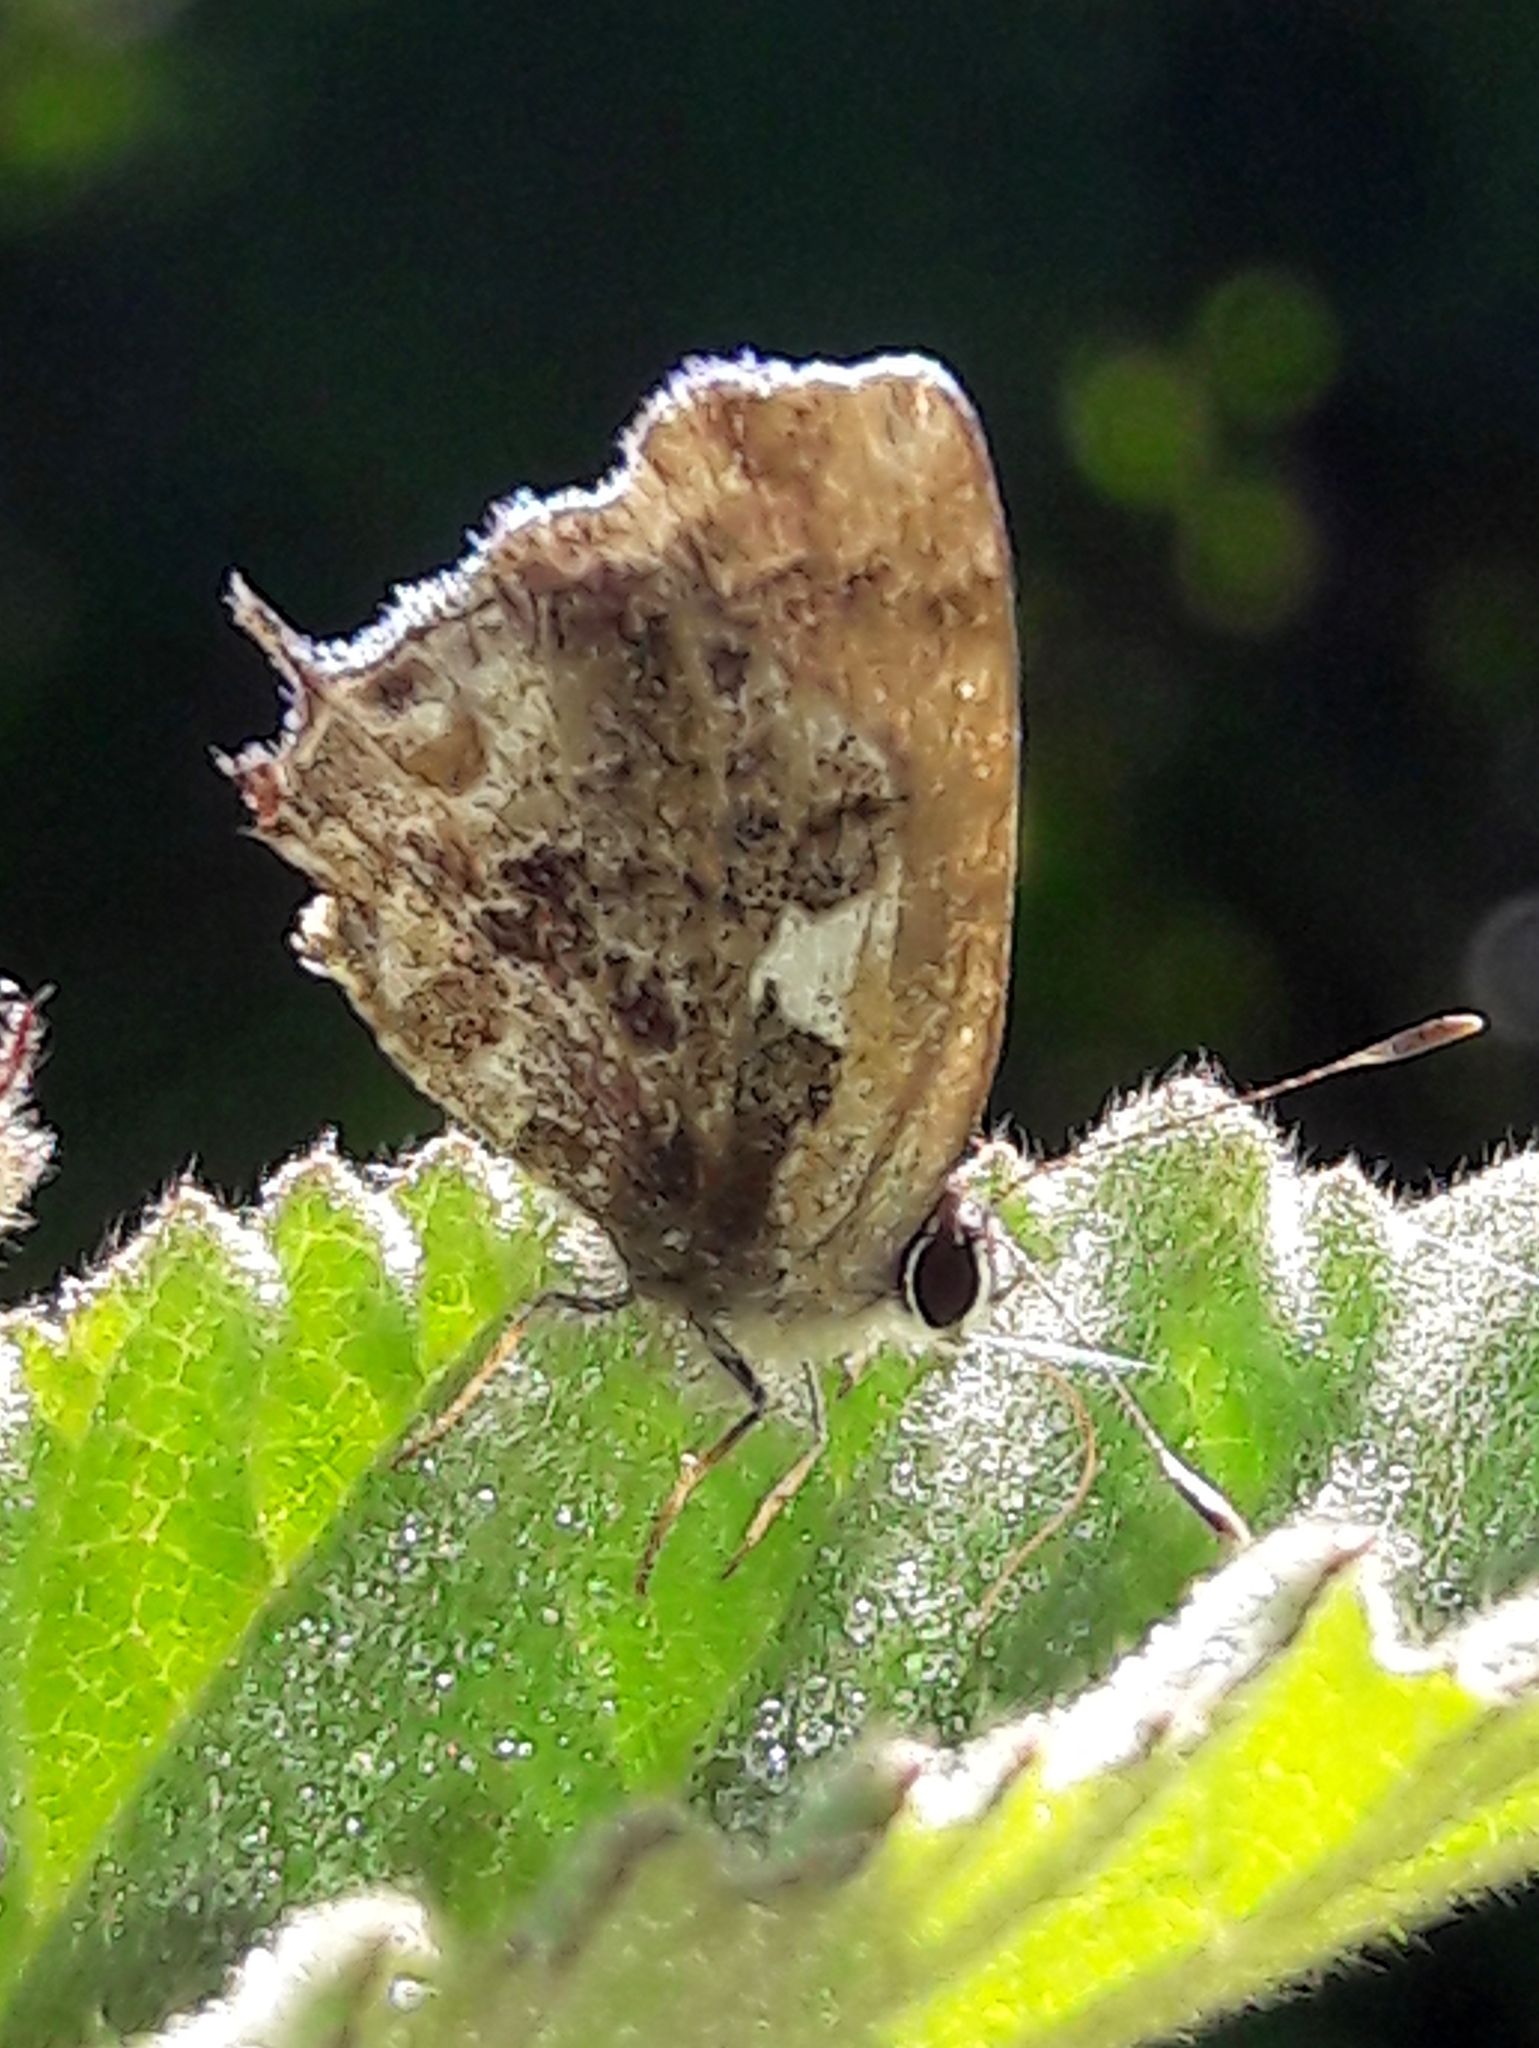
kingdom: Animalia
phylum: Arthropoda
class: Insecta
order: Lepidoptera
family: Lycaenidae
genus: Strymon
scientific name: Strymon
